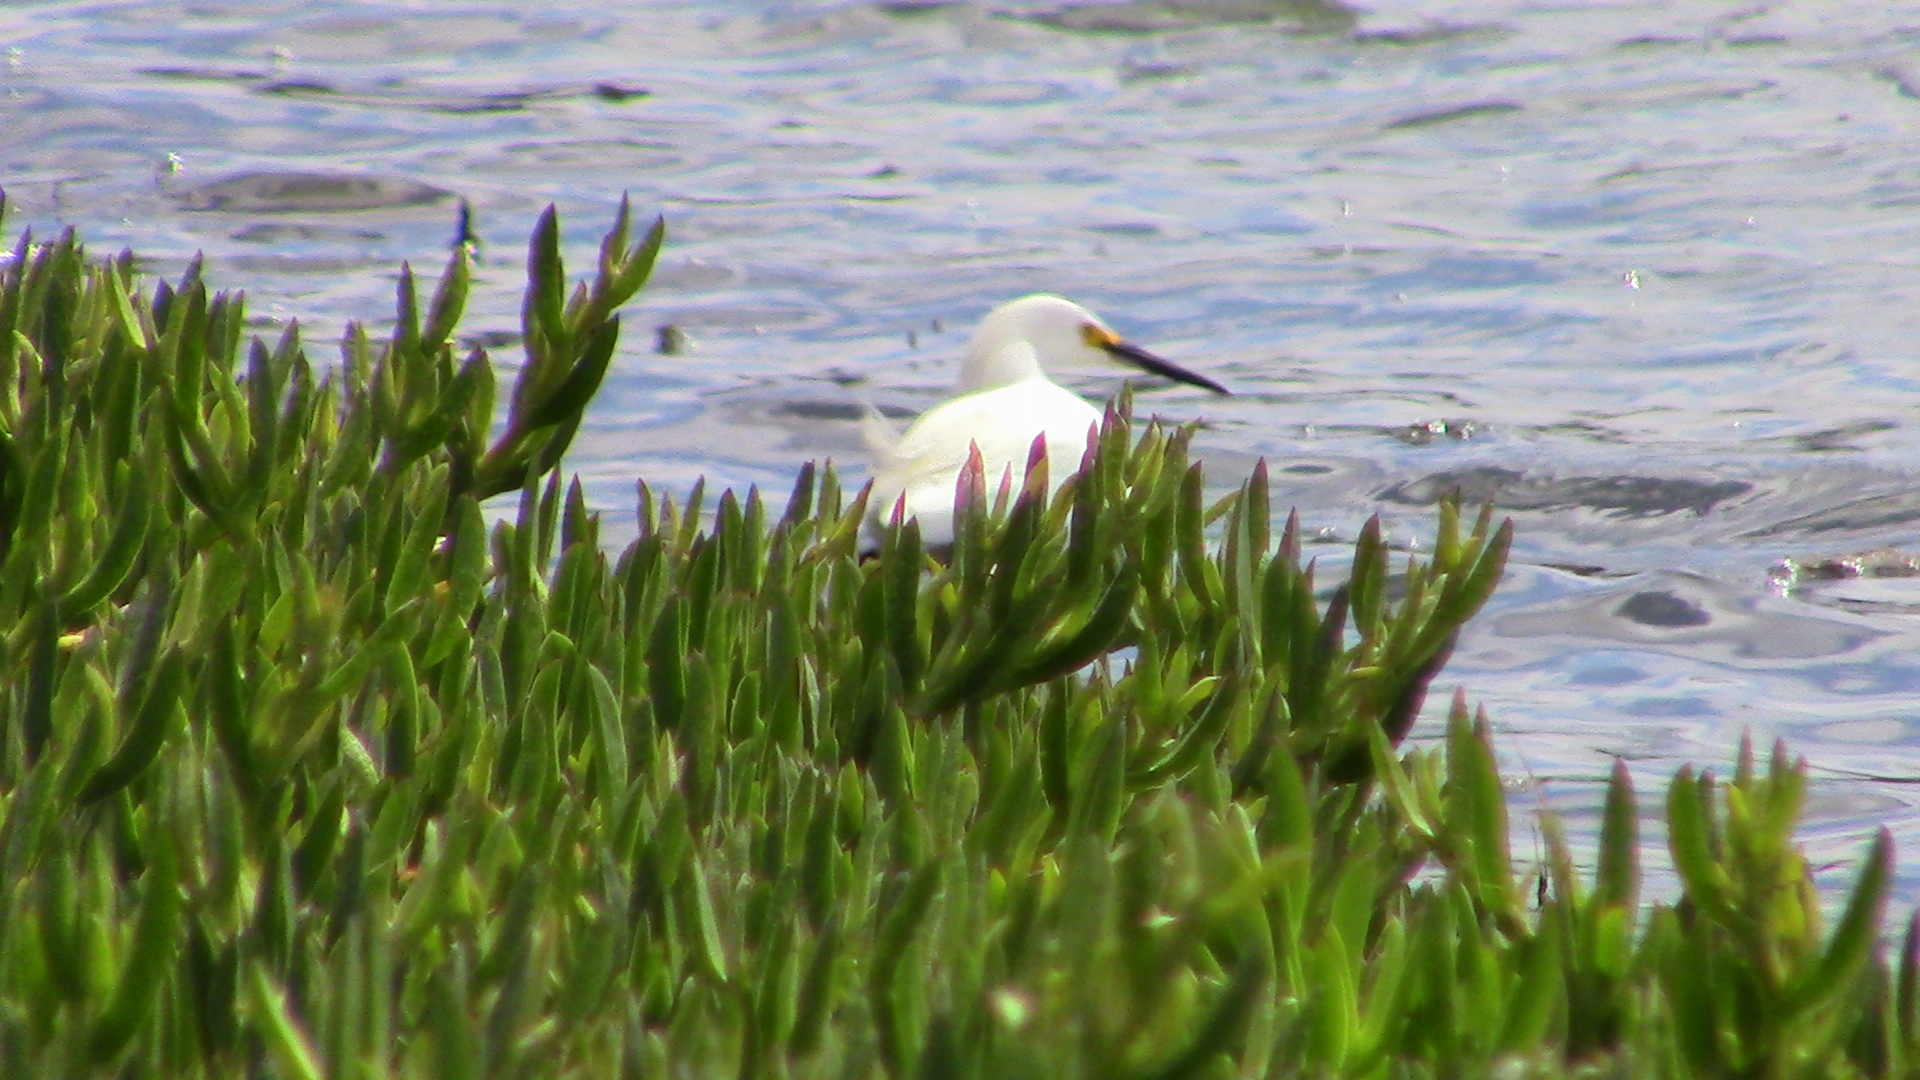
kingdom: Animalia
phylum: Chordata
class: Aves
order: Pelecaniformes
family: Ardeidae
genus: Egretta
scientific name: Egretta thula
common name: Snowy egret
